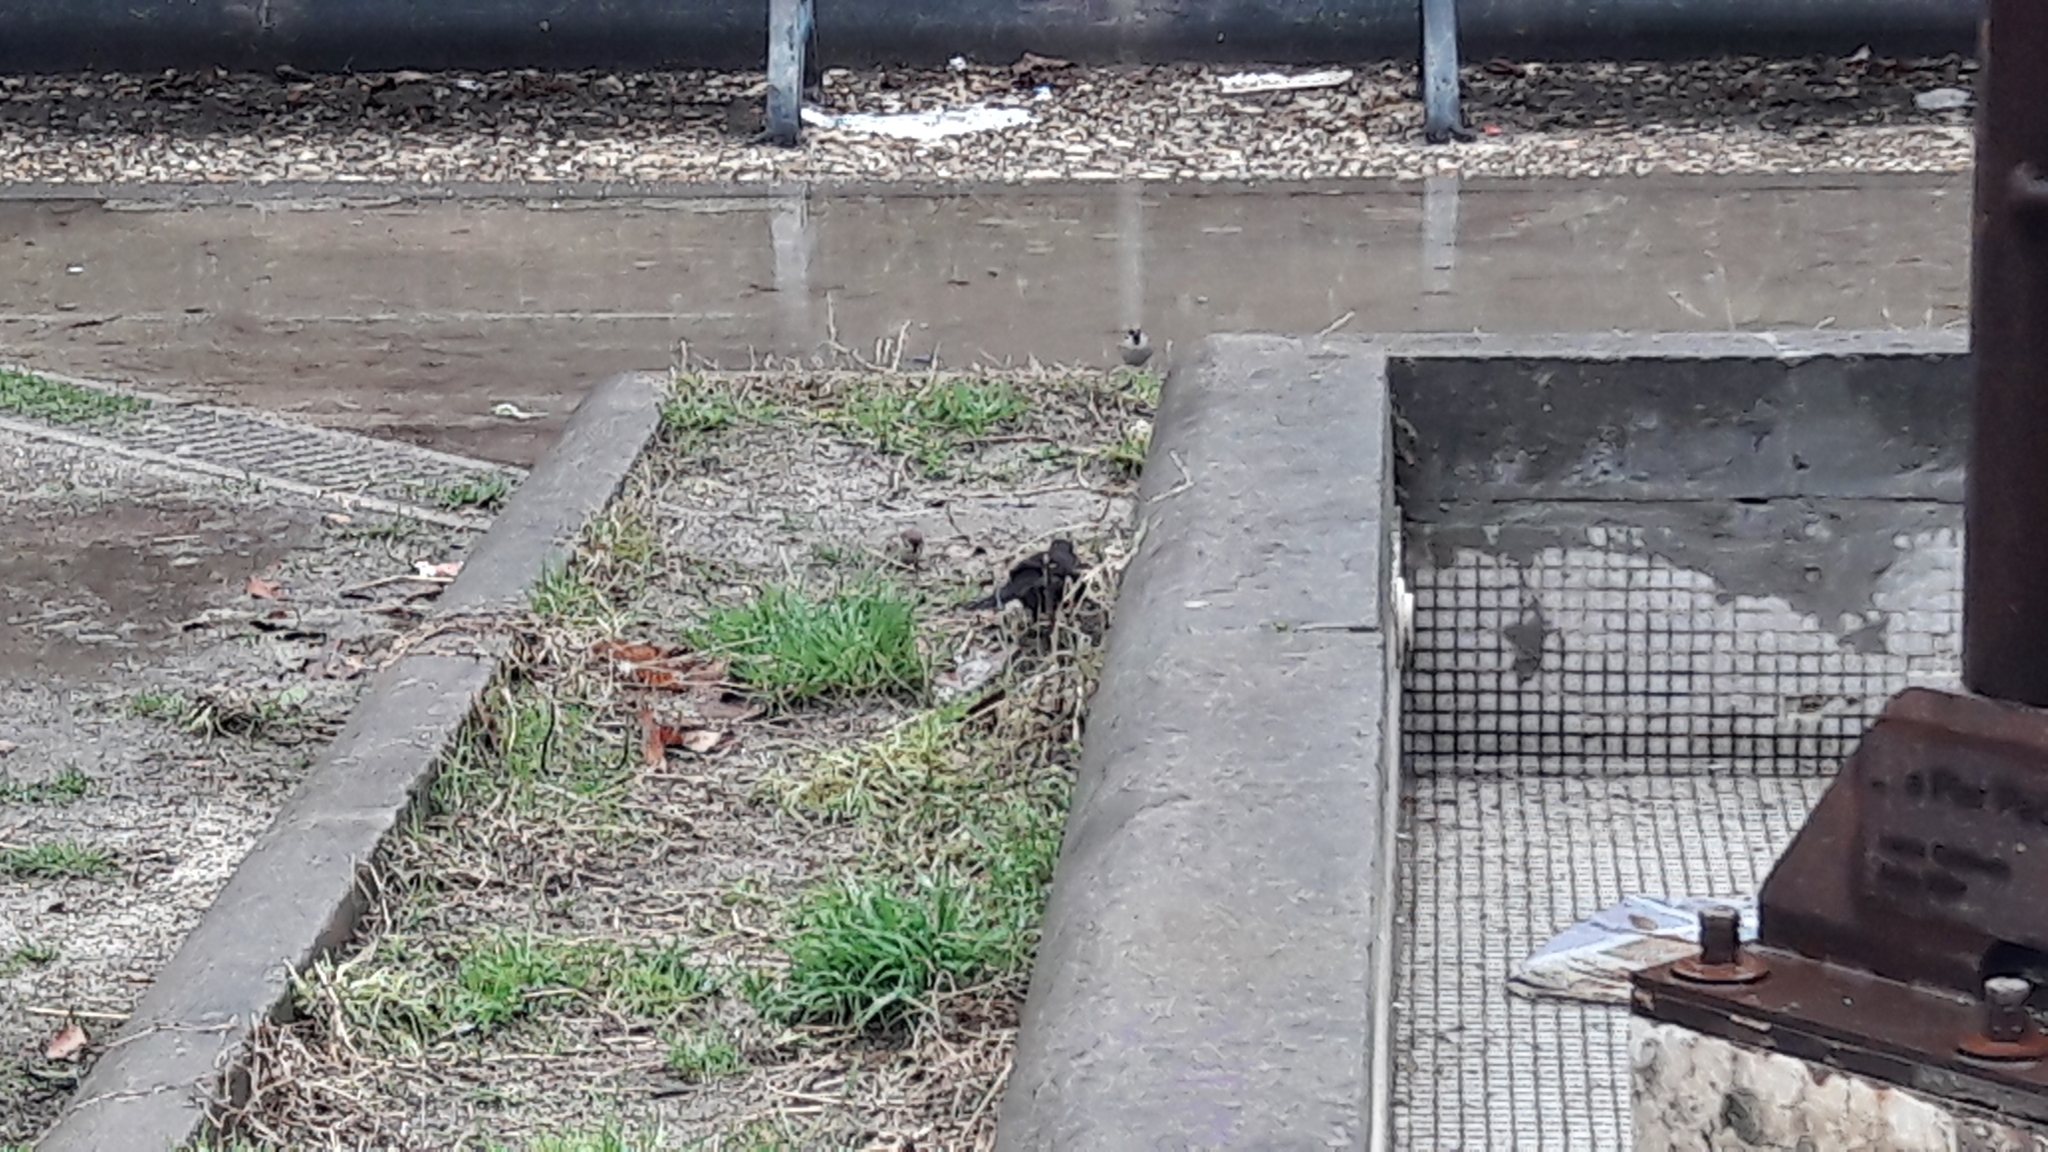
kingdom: Animalia
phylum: Chordata
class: Aves
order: Passeriformes
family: Passeridae
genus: Passer
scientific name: Passer montanus
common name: Eurasian tree sparrow
